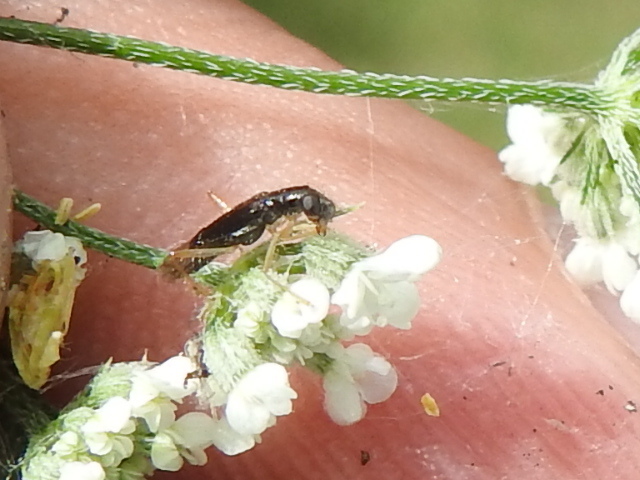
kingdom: Animalia
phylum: Arthropoda
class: Insecta
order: Coleoptera
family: Cleridae
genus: Isohydnocera
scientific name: Isohydnocera curtipennis
